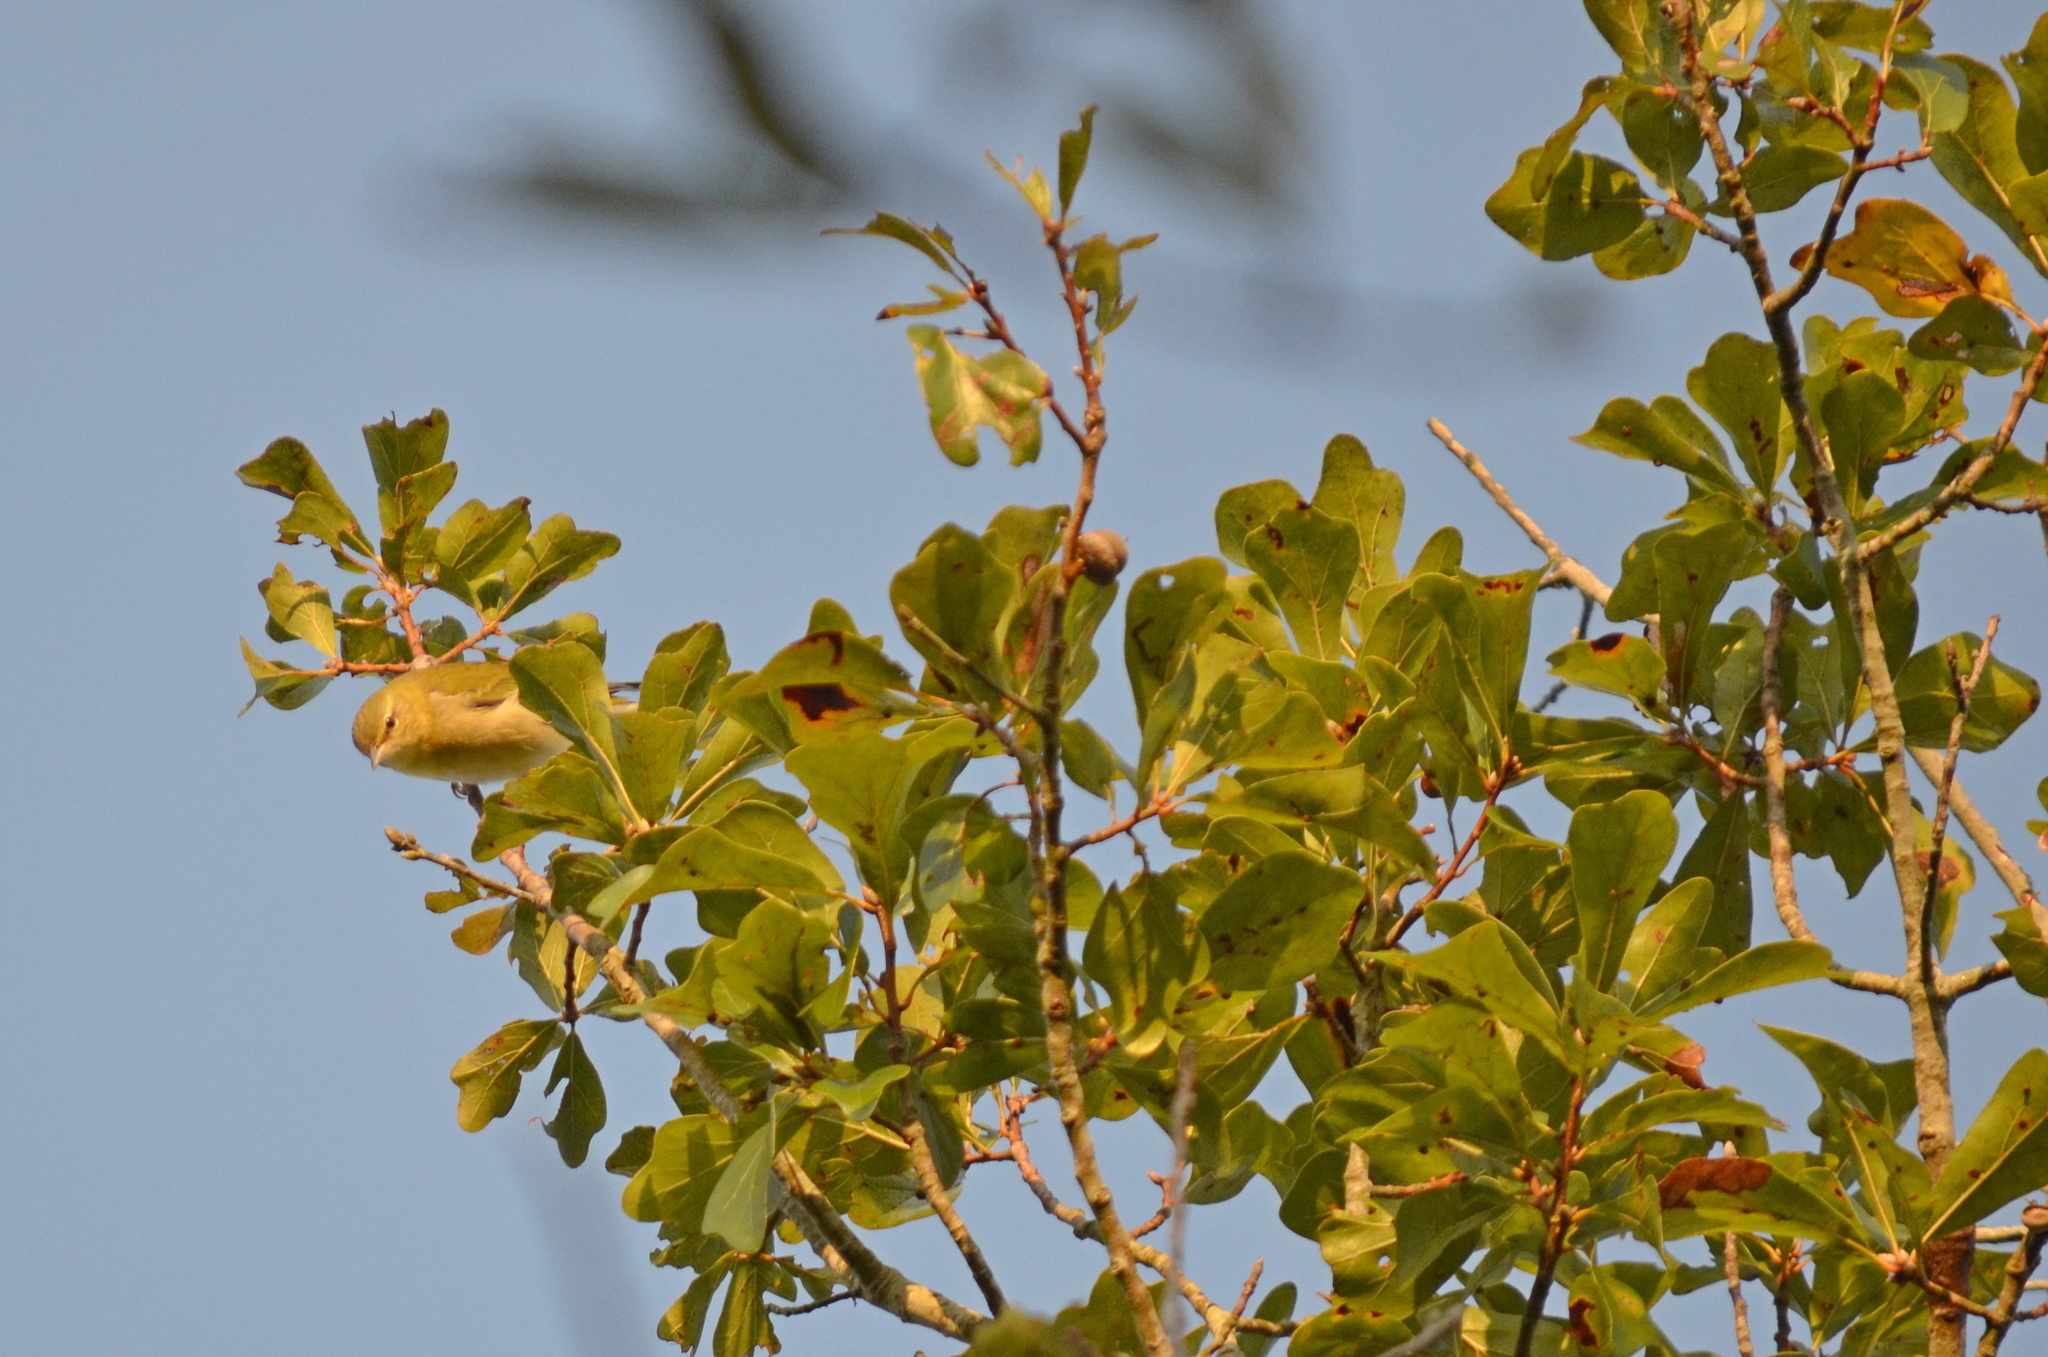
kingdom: Animalia
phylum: Chordata
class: Aves
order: Passeriformes
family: Parulidae
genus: Leiothlypis
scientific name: Leiothlypis peregrina
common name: Tennessee warbler
